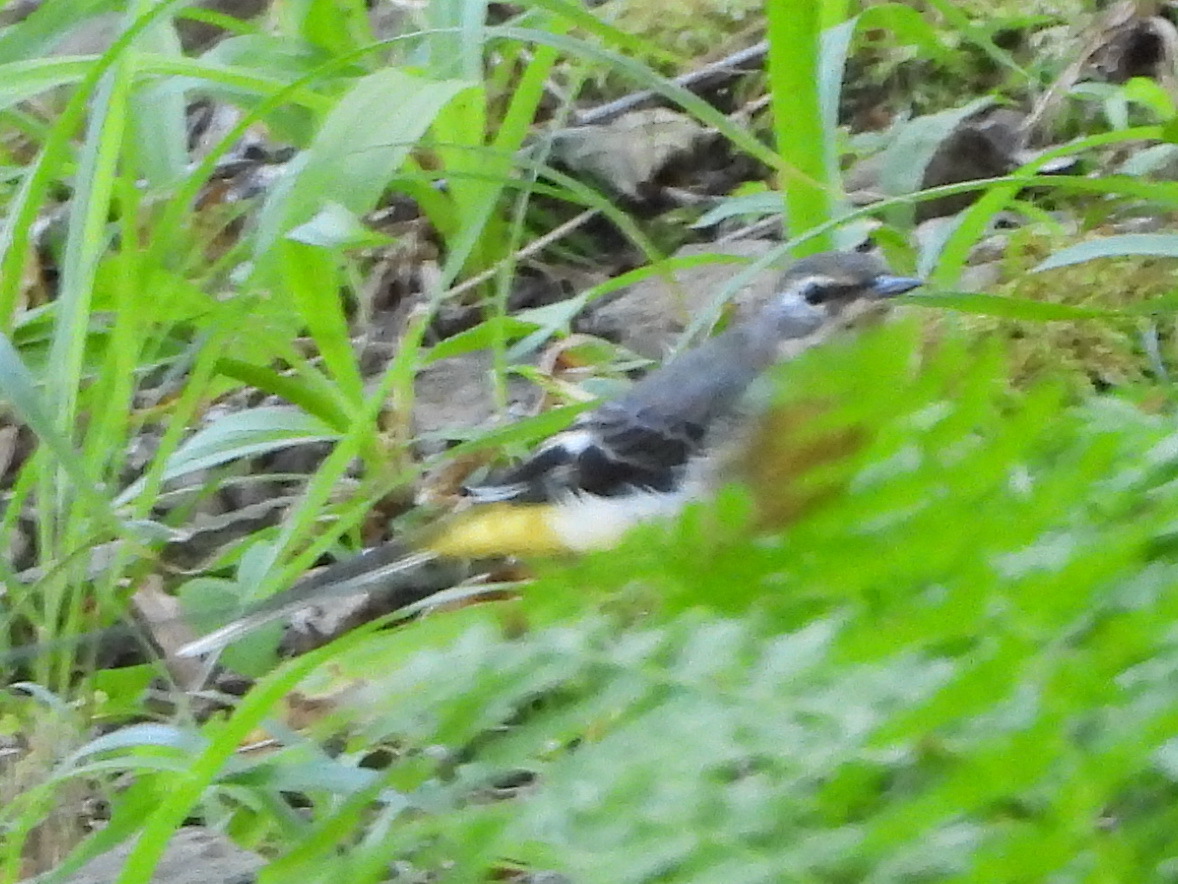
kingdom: Animalia
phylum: Chordata
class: Aves
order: Passeriformes
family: Motacillidae
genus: Motacilla
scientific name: Motacilla cinerea
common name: Grey wagtail
